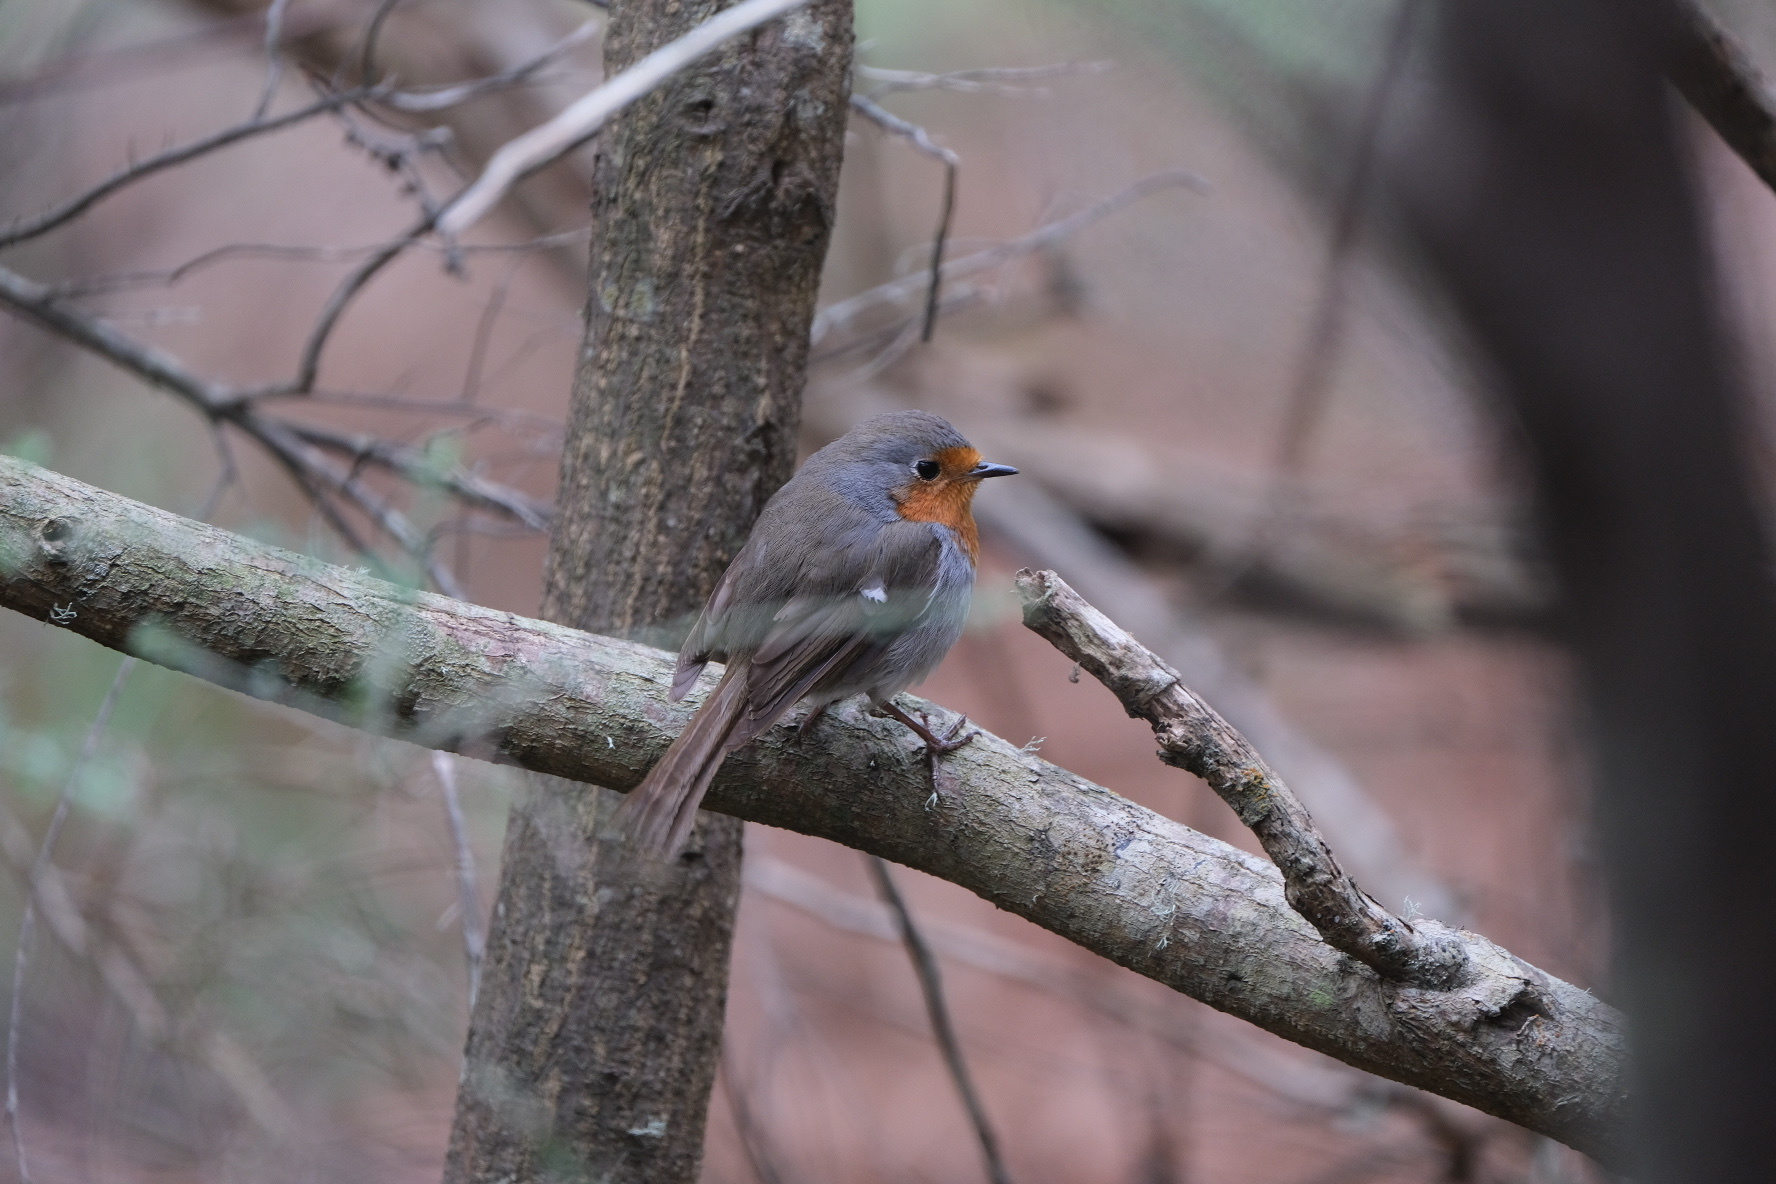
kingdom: Animalia
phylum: Chordata
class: Aves
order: Passeriformes
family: Muscicapidae
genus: Erithacus
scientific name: Erithacus rubecula
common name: European robin
